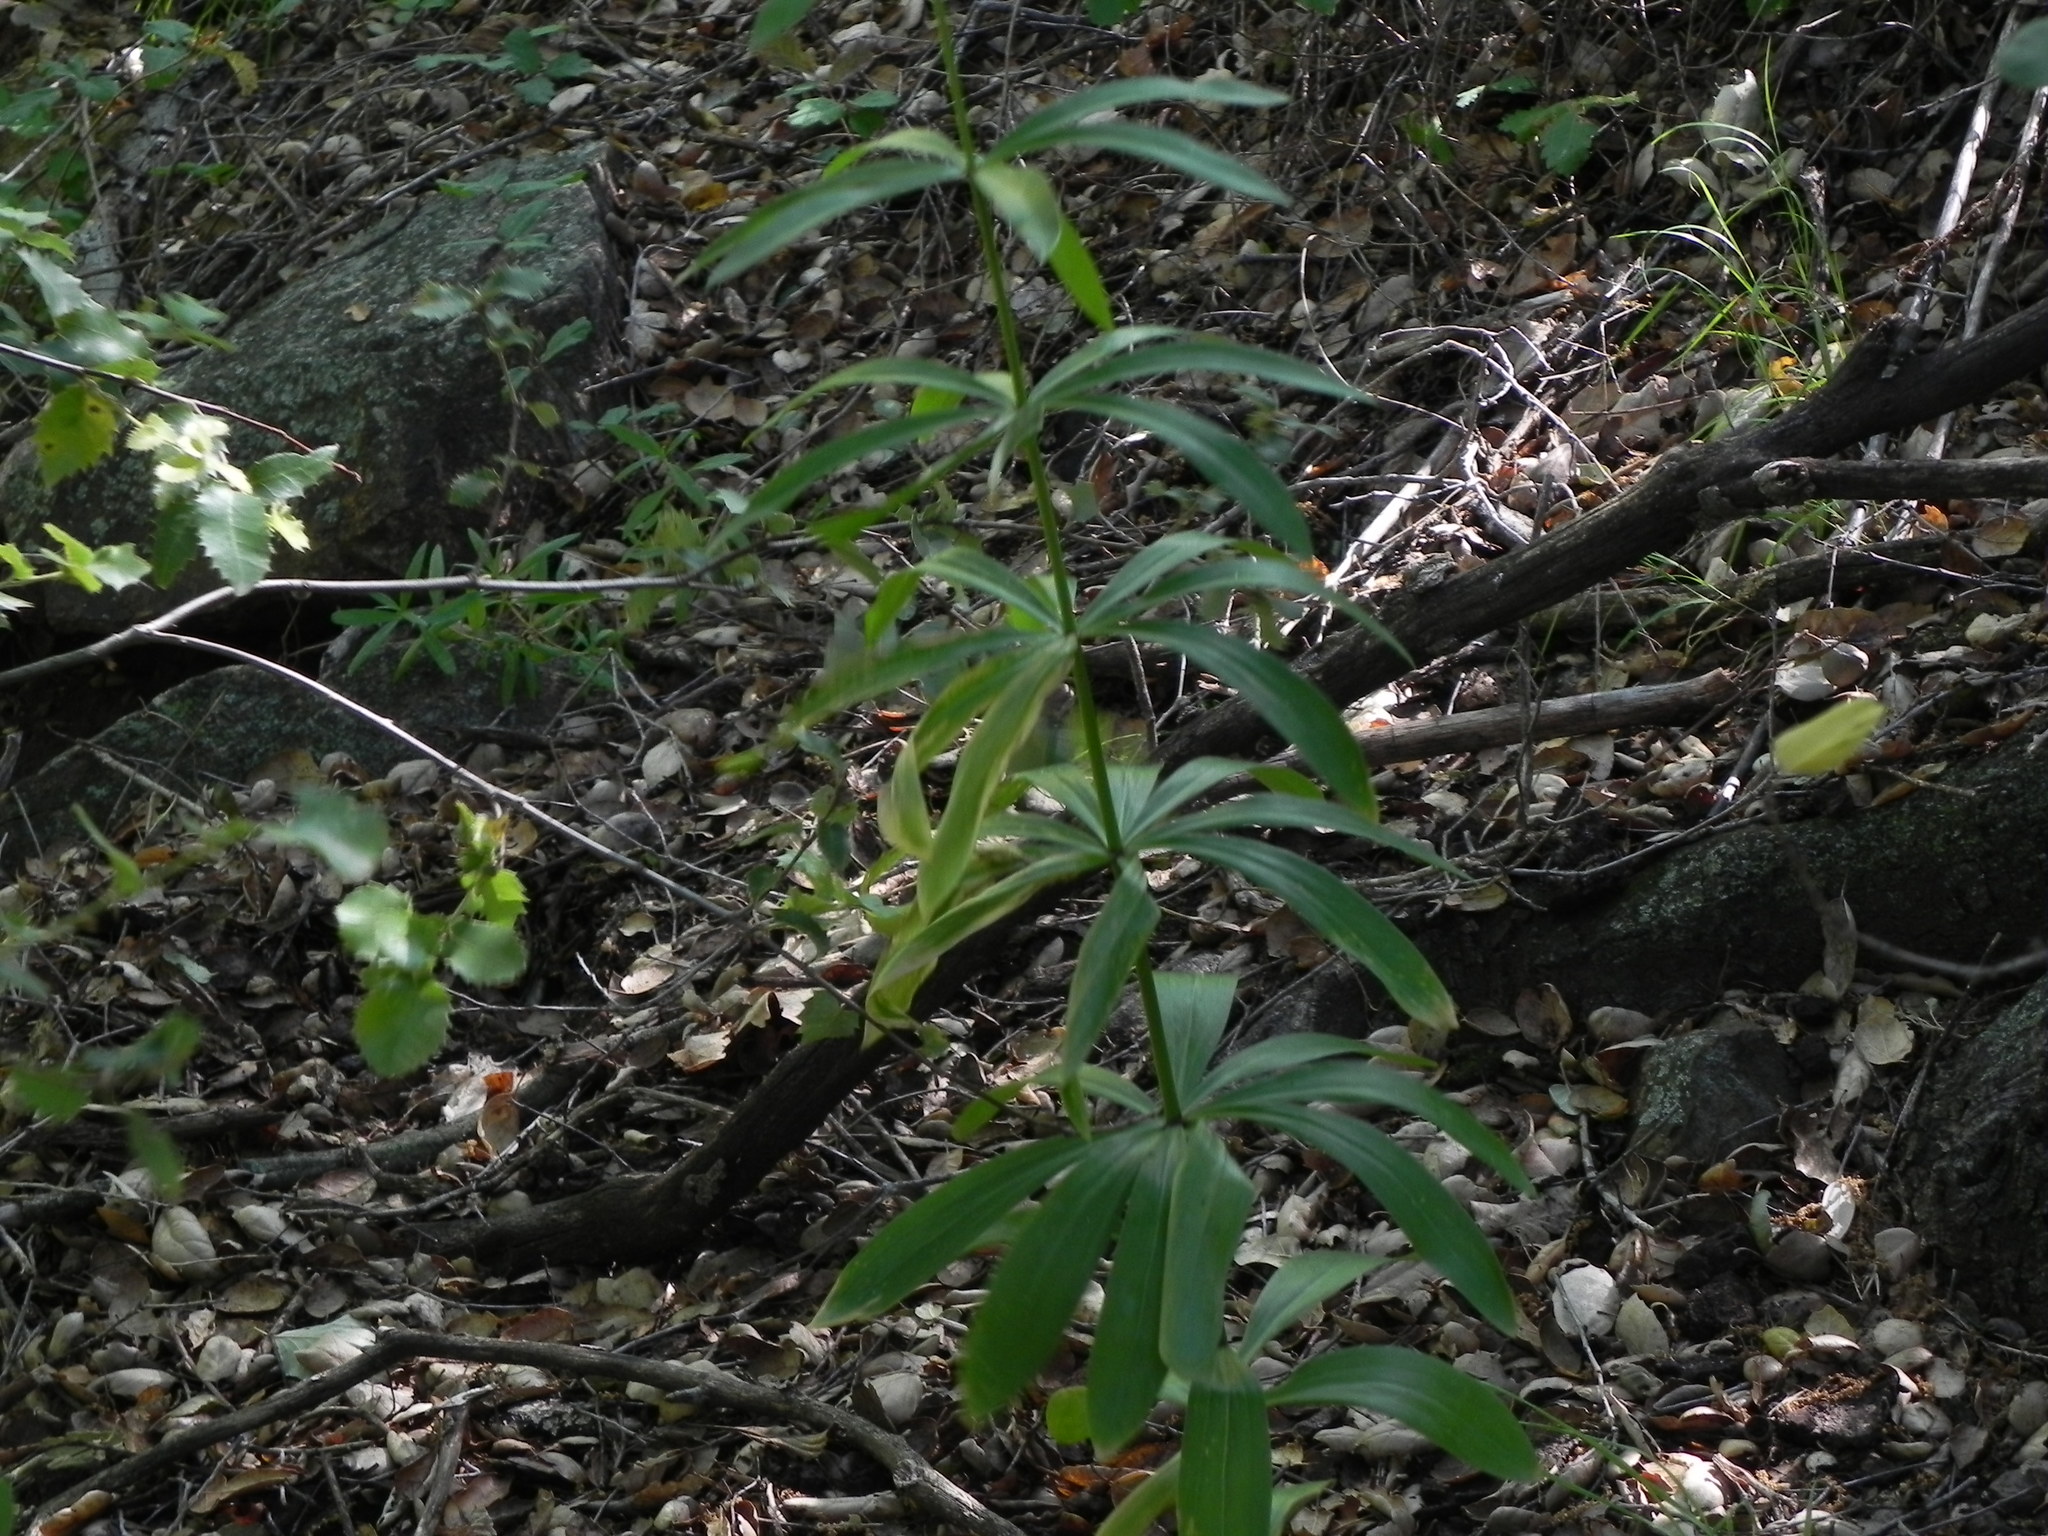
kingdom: Plantae
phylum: Tracheophyta
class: Liliopsida
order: Liliales
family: Liliaceae
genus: Lilium
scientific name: Lilium humboldtii
